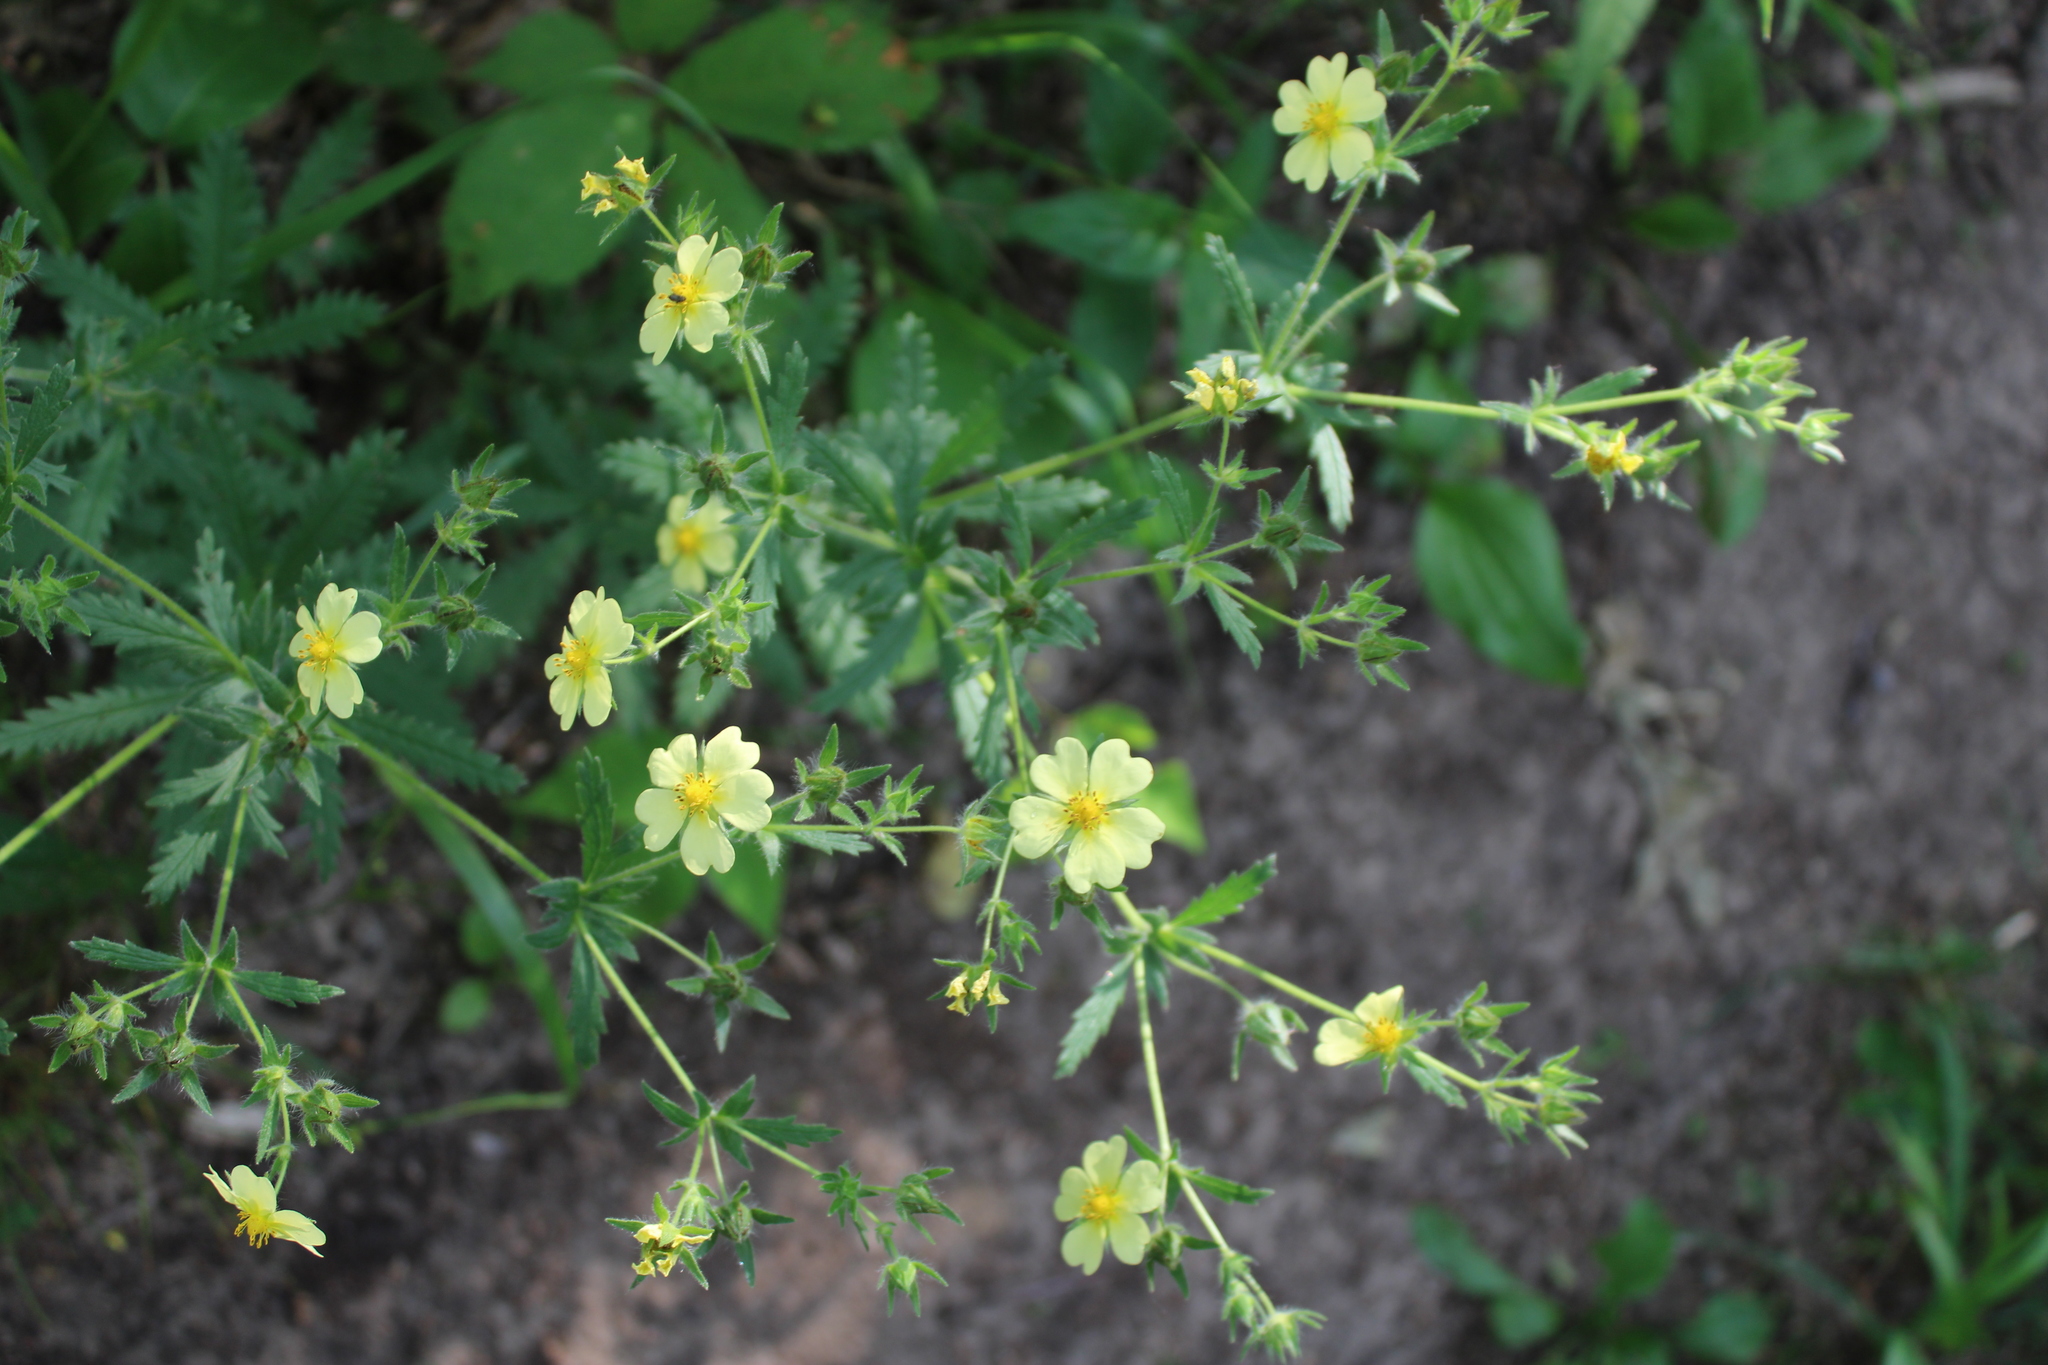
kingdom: Plantae
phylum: Tracheophyta
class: Magnoliopsida
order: Rosales
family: Rosaceae
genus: Potentilla
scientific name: Potentilla recta
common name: Sulphur cinquefoil
